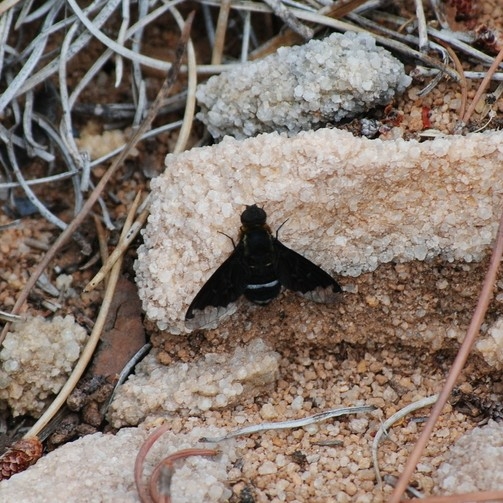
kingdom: Animalia
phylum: Arthropoda
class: Insecta
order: Diptera
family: Bombyliidae
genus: Hemipenthes
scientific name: Hemipenthes velutina
